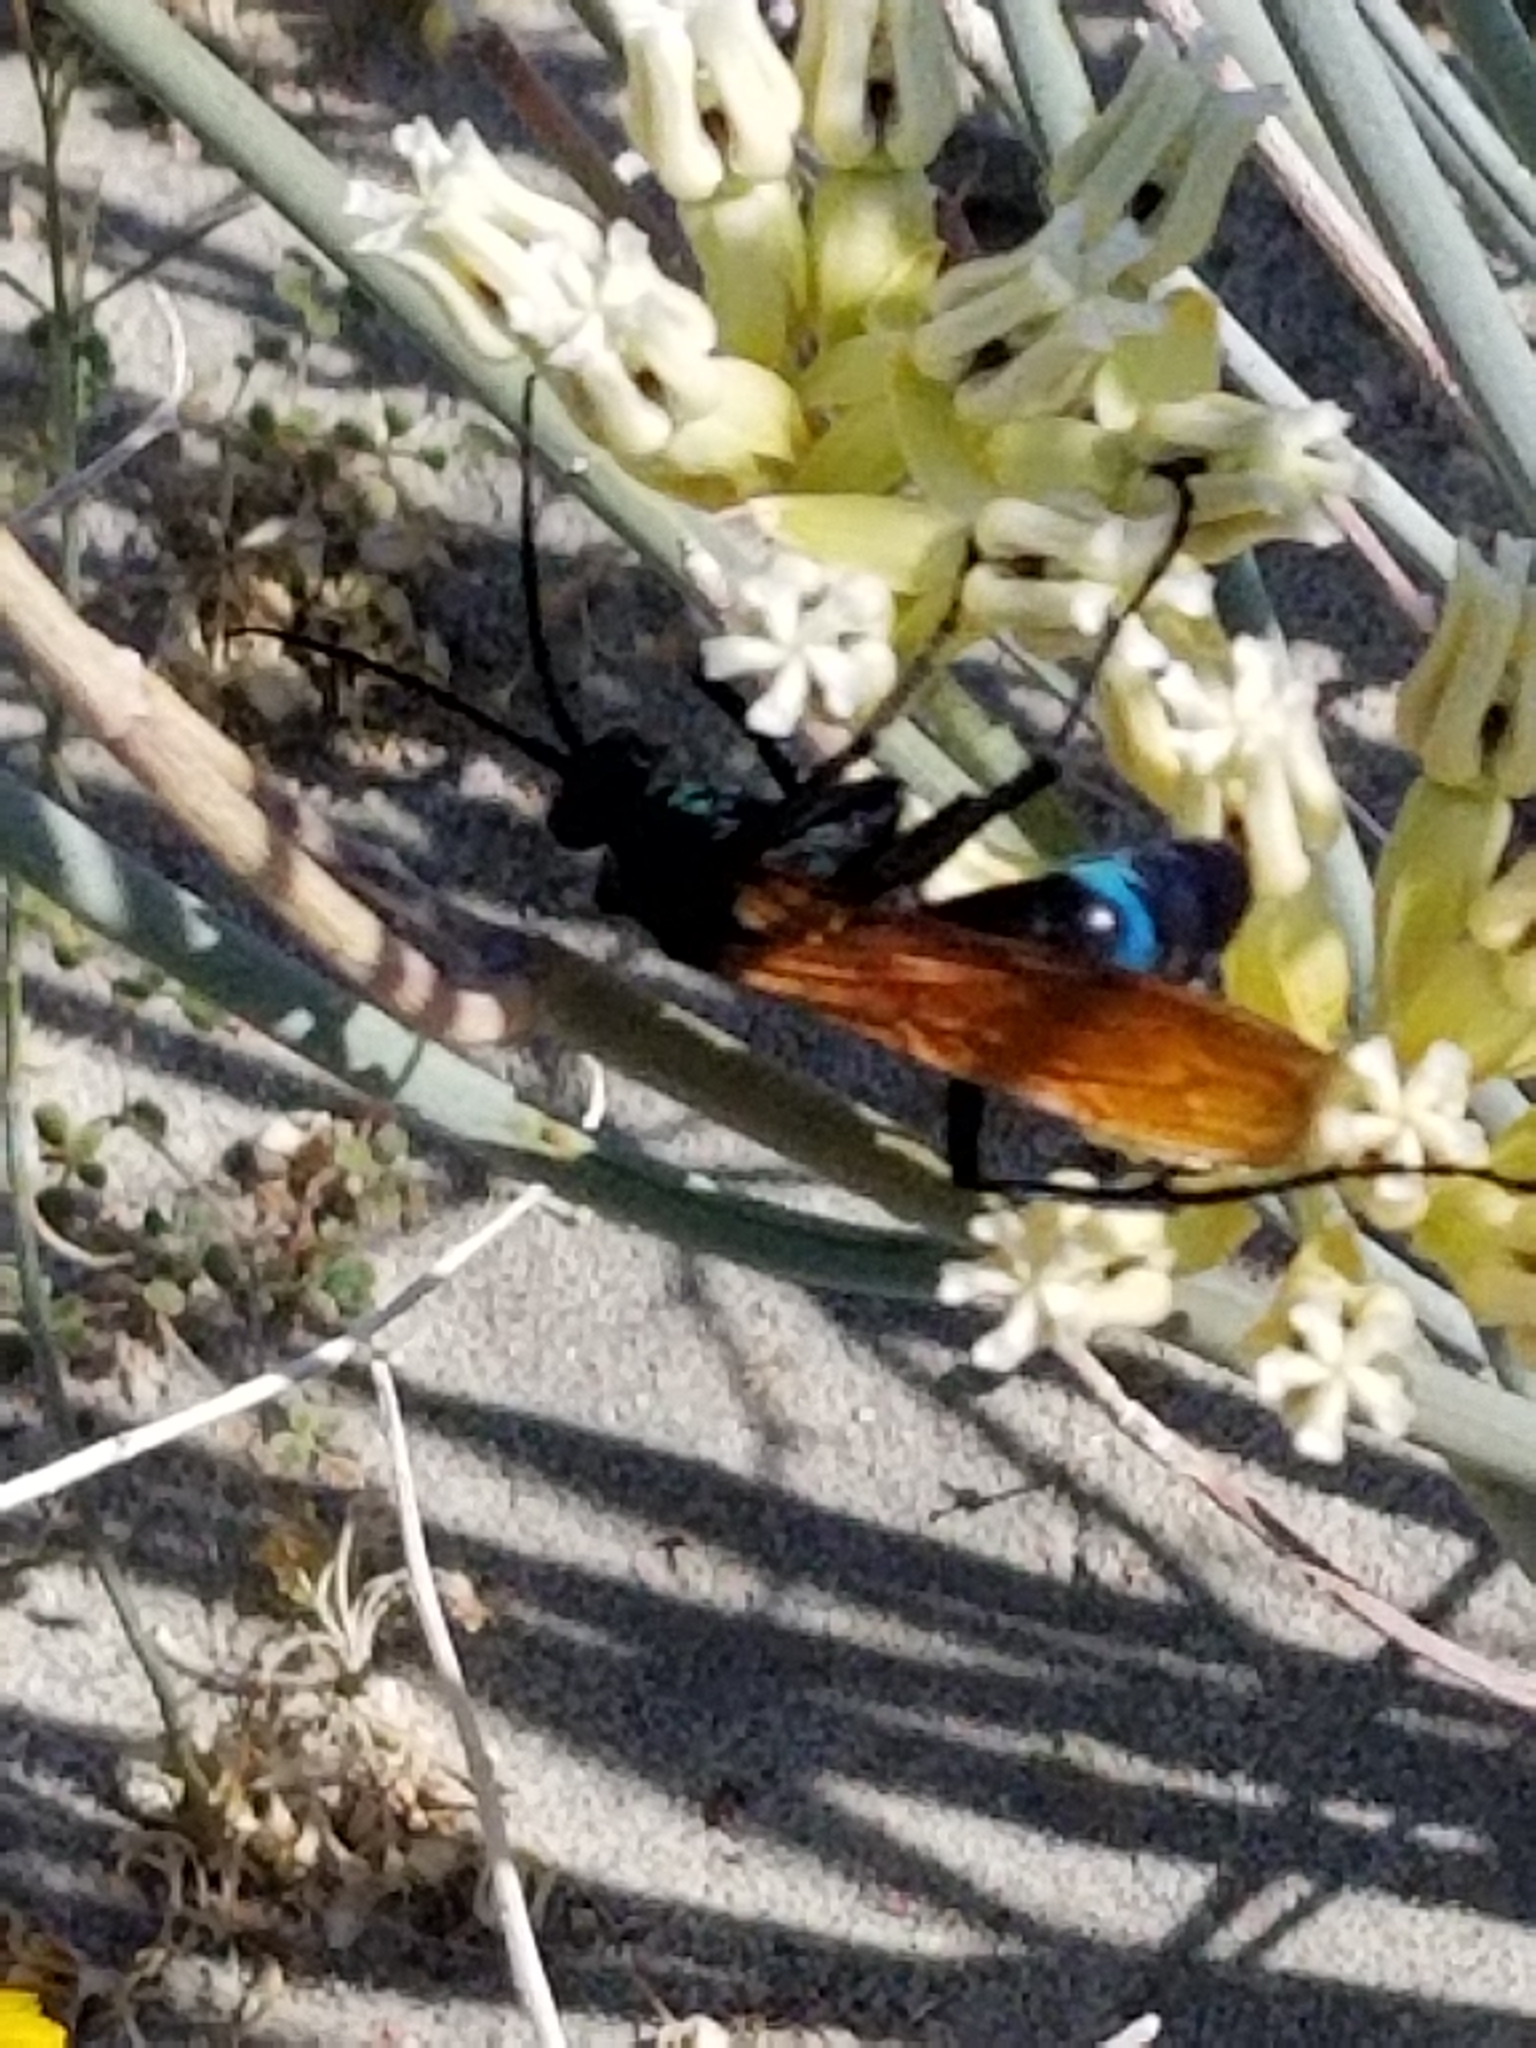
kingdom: Animalia
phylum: Arthropoda
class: Insecta
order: Hymenoptera
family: Pompilidae
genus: Pepsis
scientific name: Pepsis thisbe
